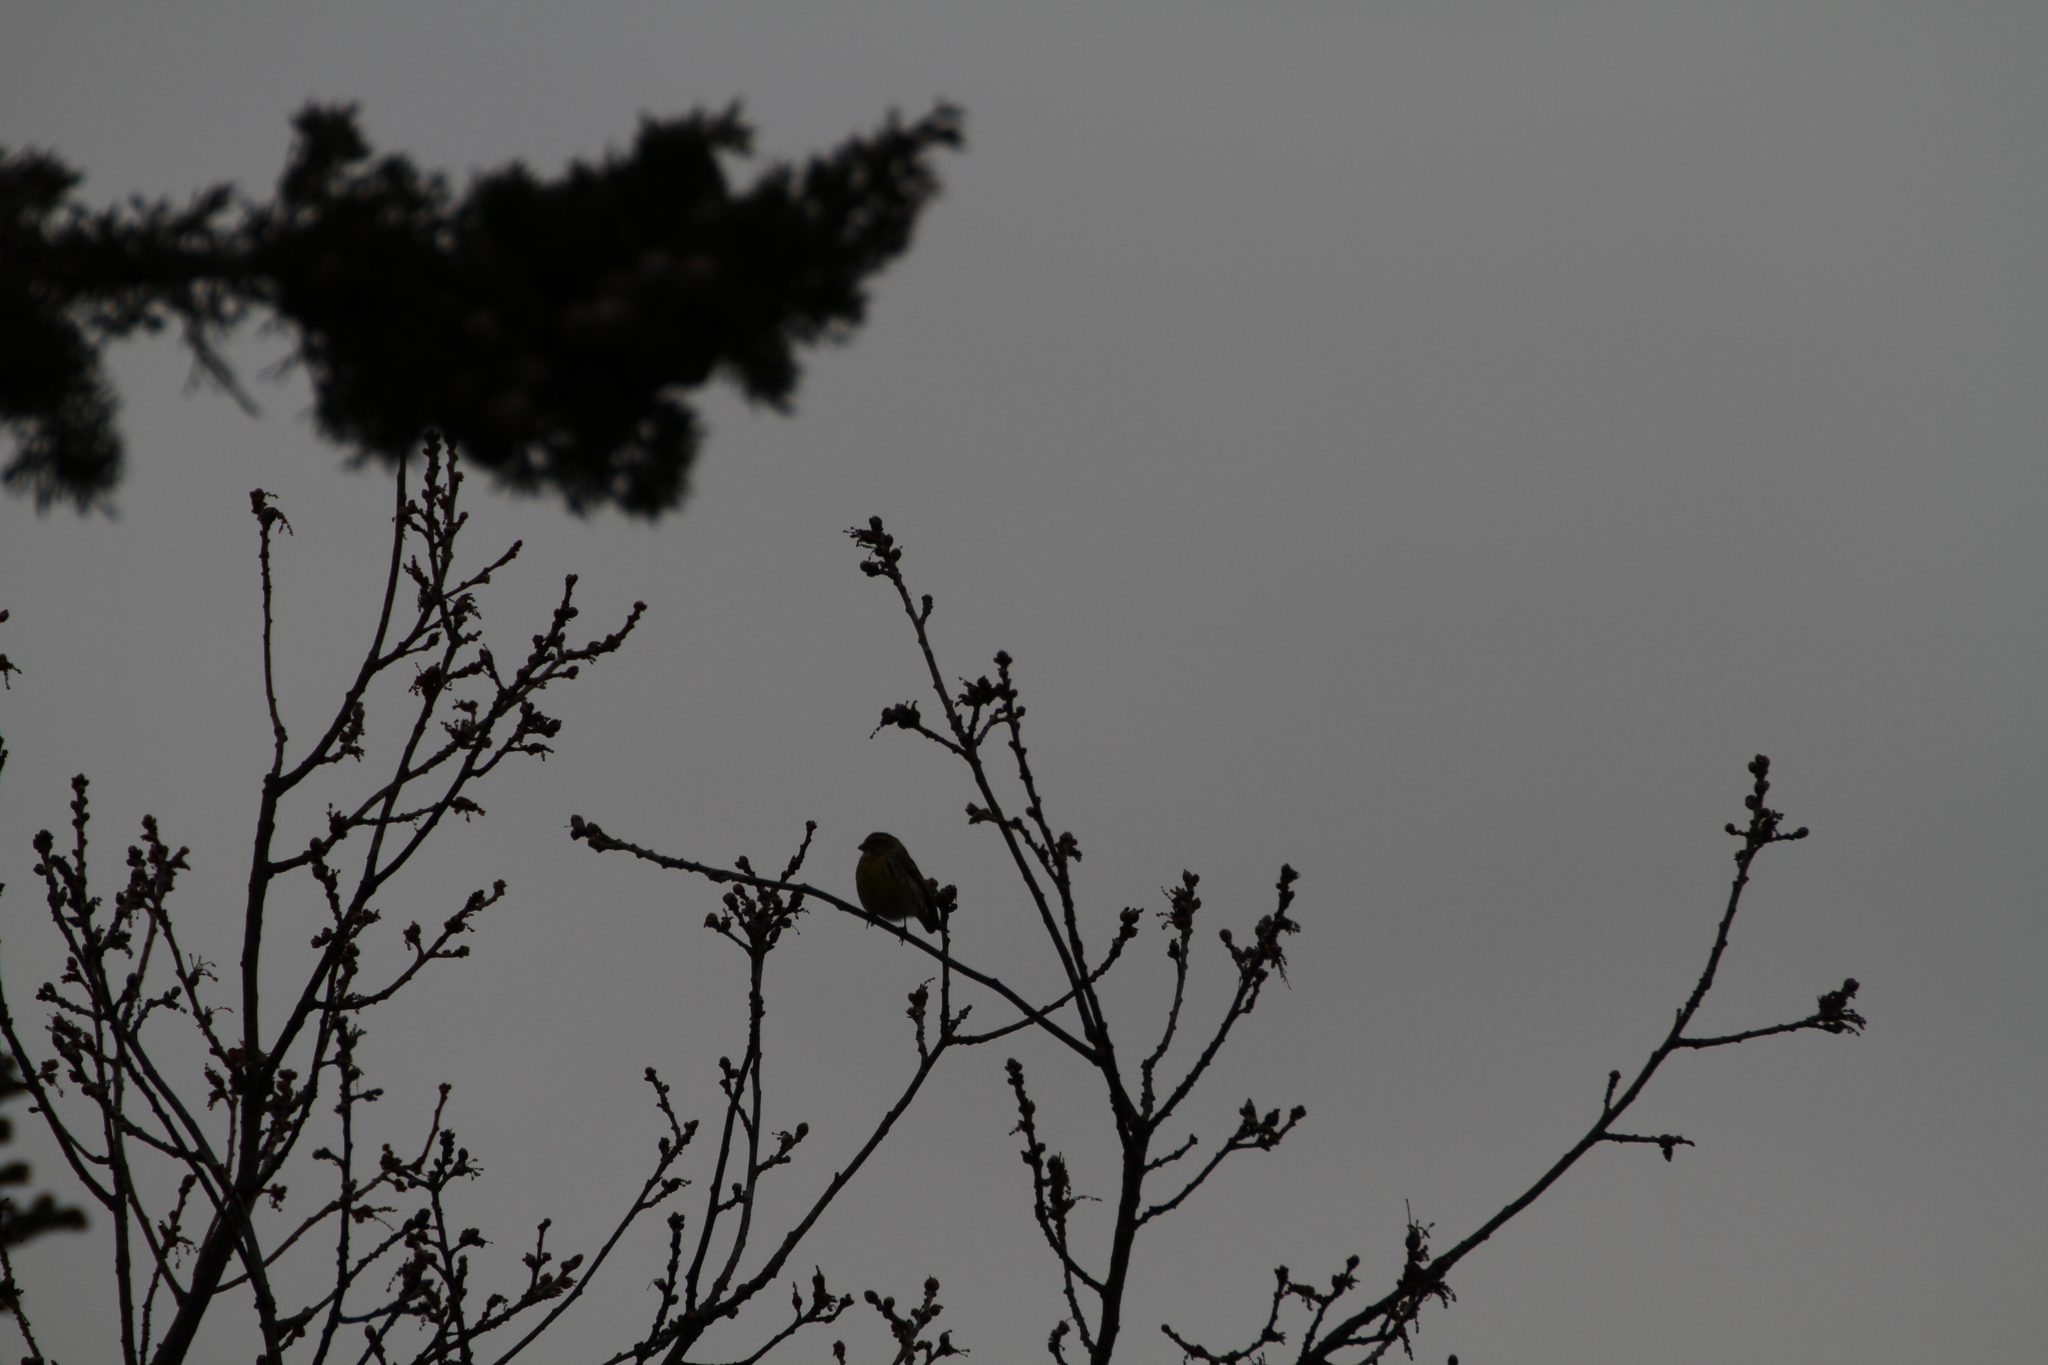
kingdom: Animalia
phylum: Chordata
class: Aves
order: Passeriformes
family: Fringillidae
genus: Serinus
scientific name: Serinus serinus
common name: European serin
